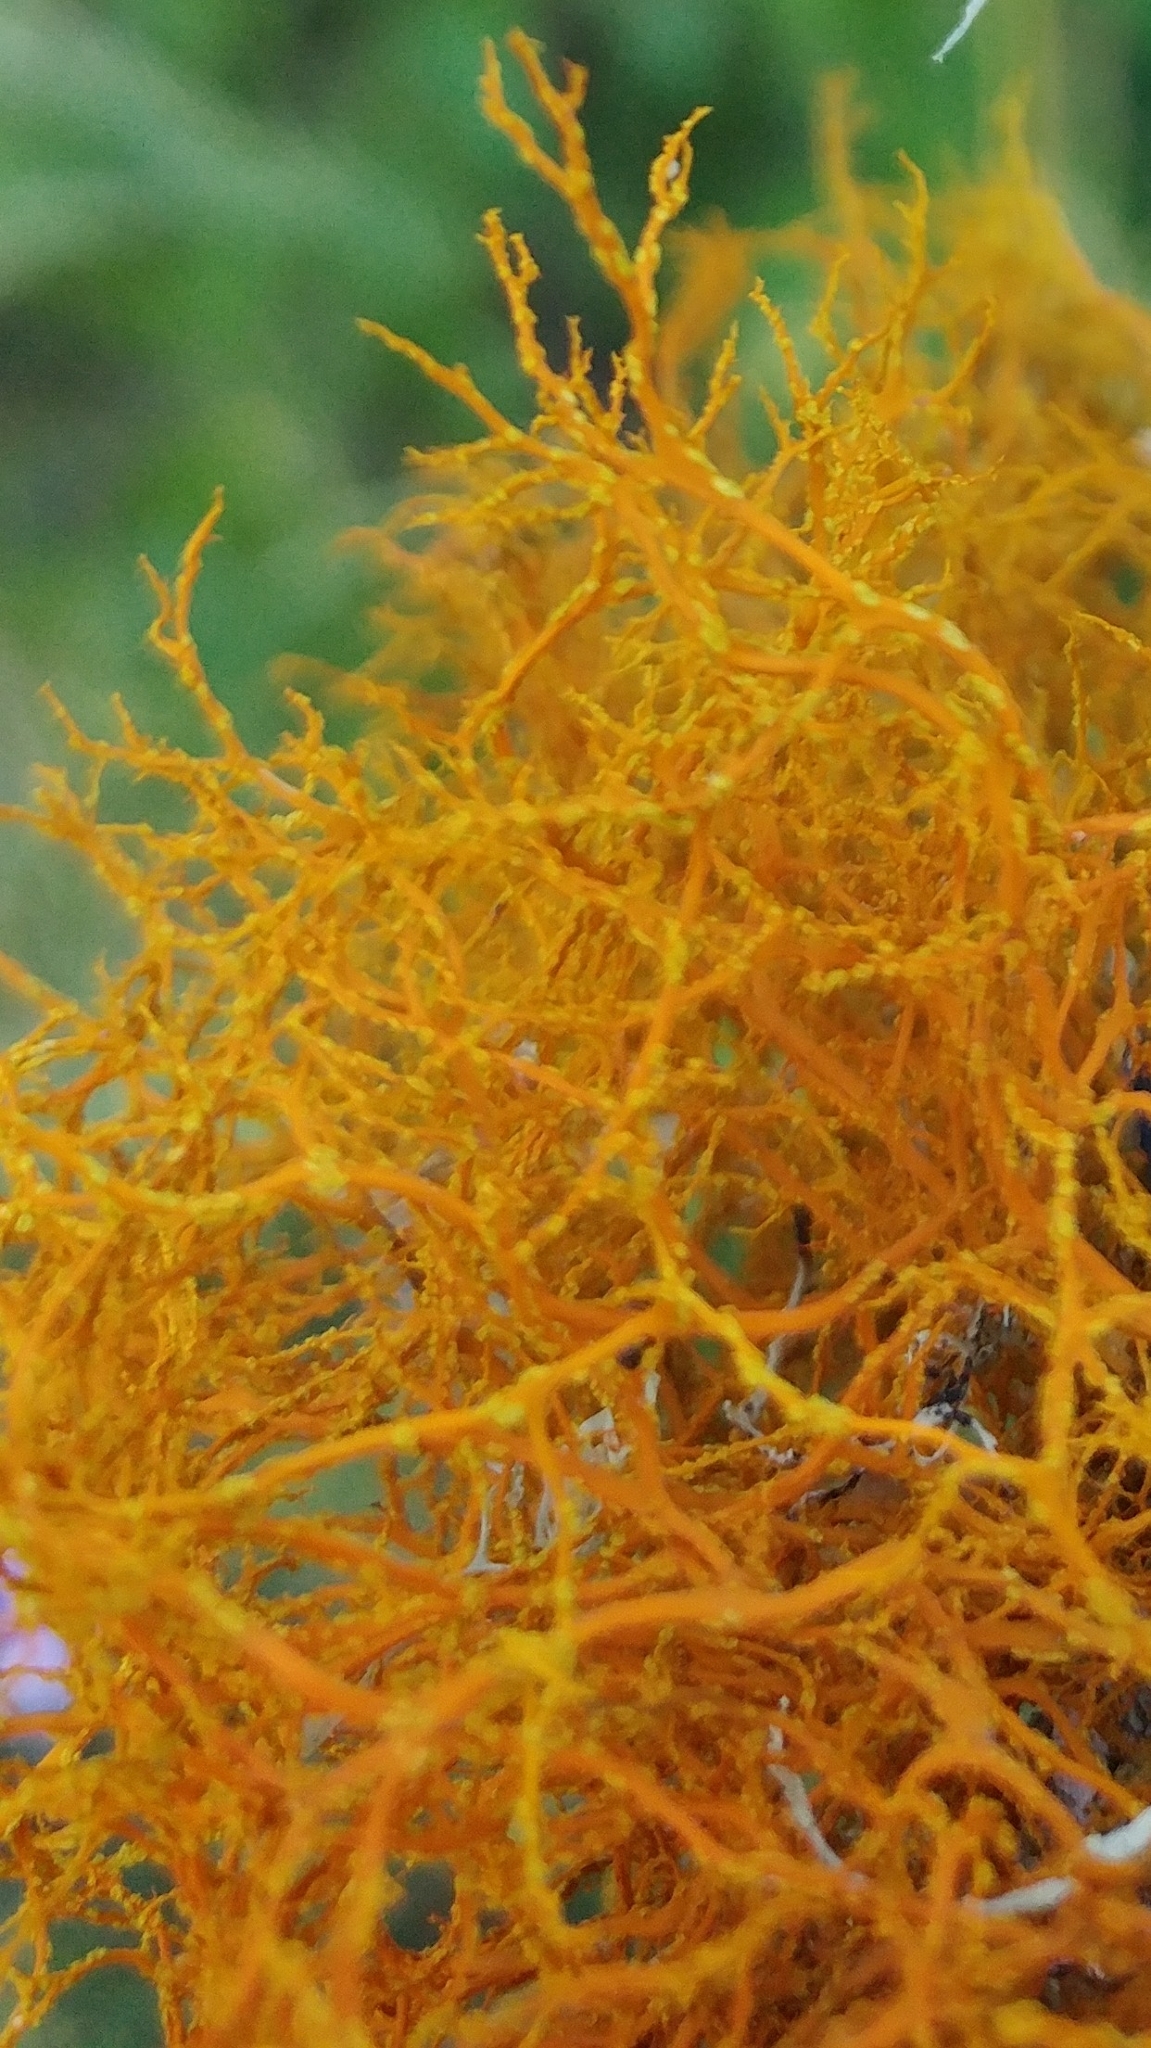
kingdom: Fungi
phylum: Ascomycota
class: Lecanoromycetes
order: Teloschistales
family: Teloschistaceae
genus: Teloschistes
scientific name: Teloschistes flavicans
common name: Golden hair-lichen
